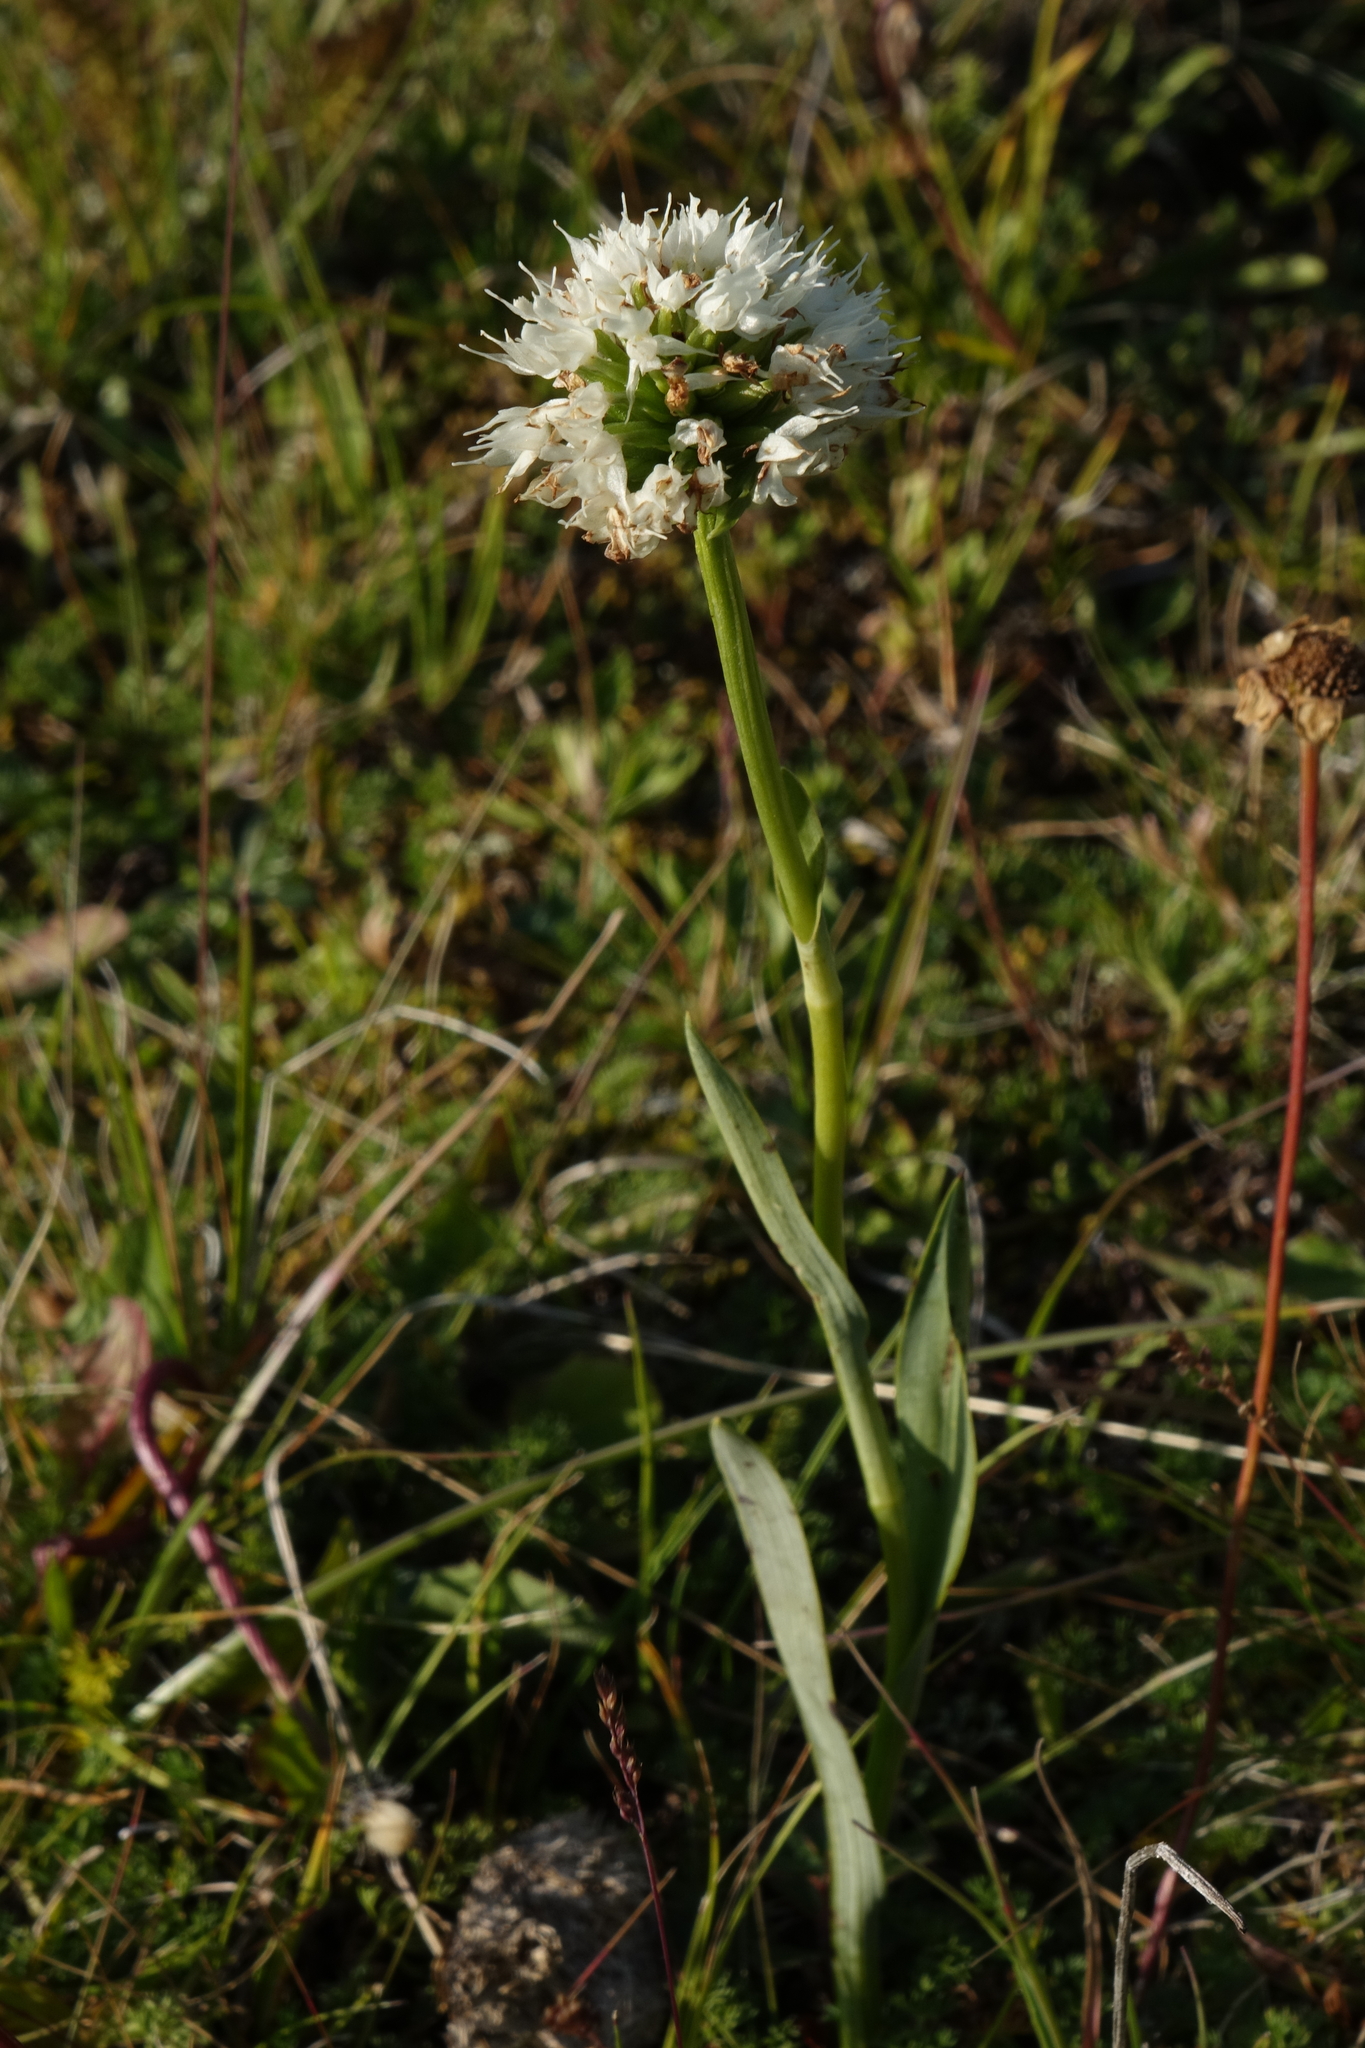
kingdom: Plantae
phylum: Tracheophyta
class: Liliopsida
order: Asparagales
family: Orchidaceae
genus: Traunsteinera
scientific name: Traunsteinera sphaerica
